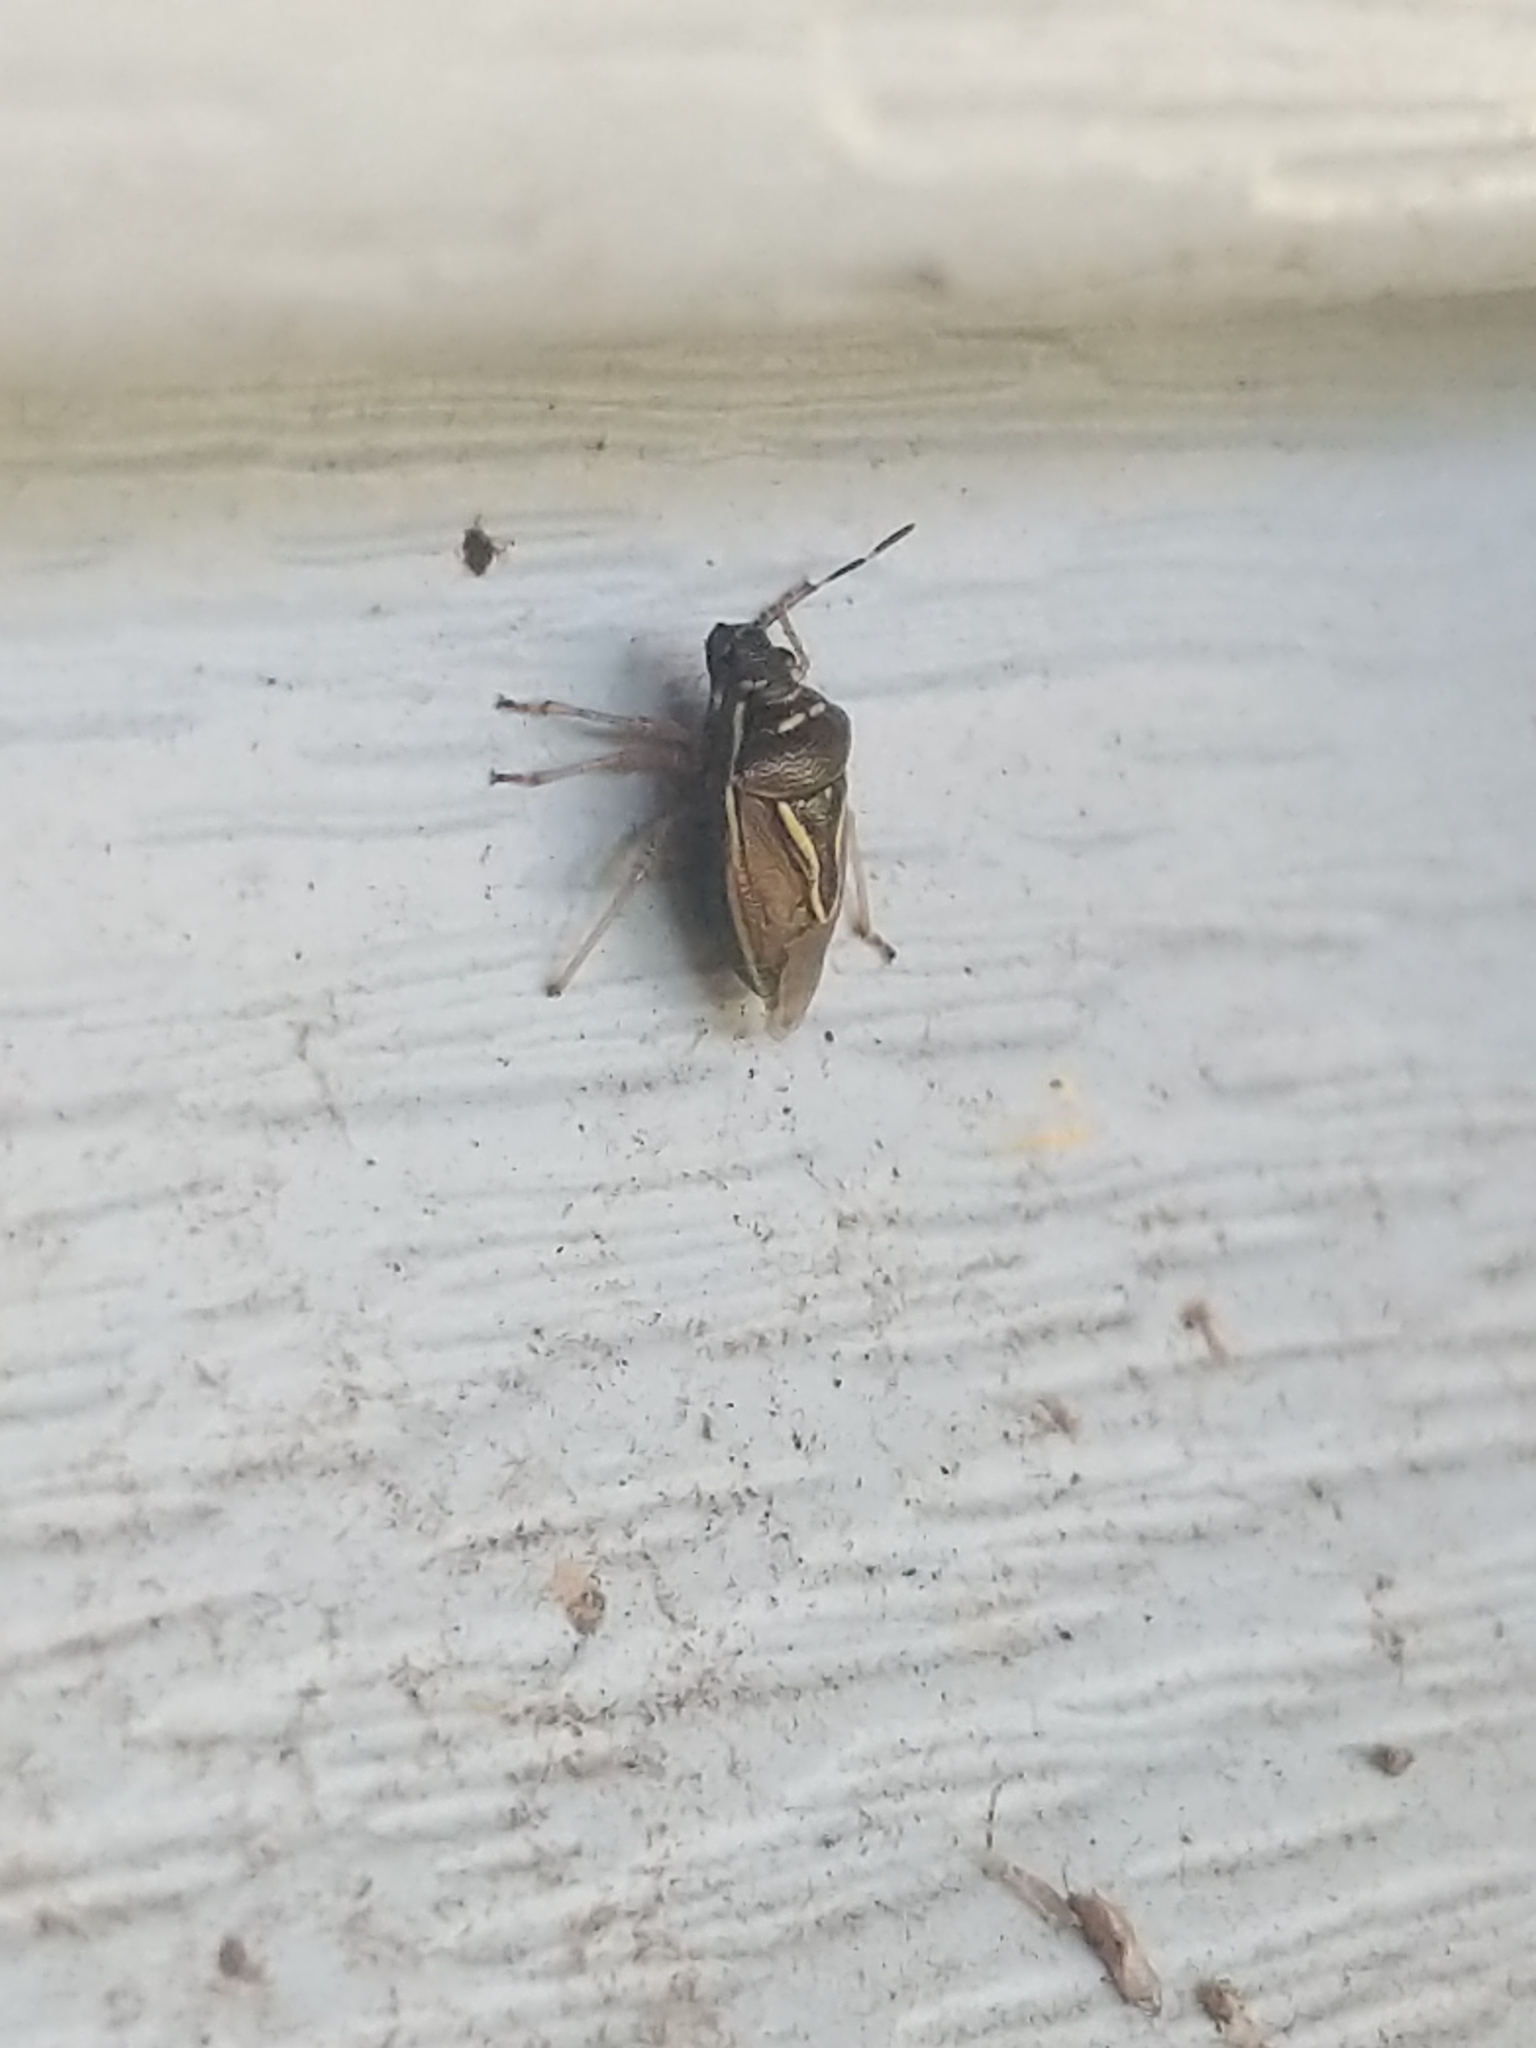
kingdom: Animalia
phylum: Arthropoda
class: Insecta
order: Hemiptera
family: Pentatomidae
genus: Mormidea
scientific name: Mormidea lugens
